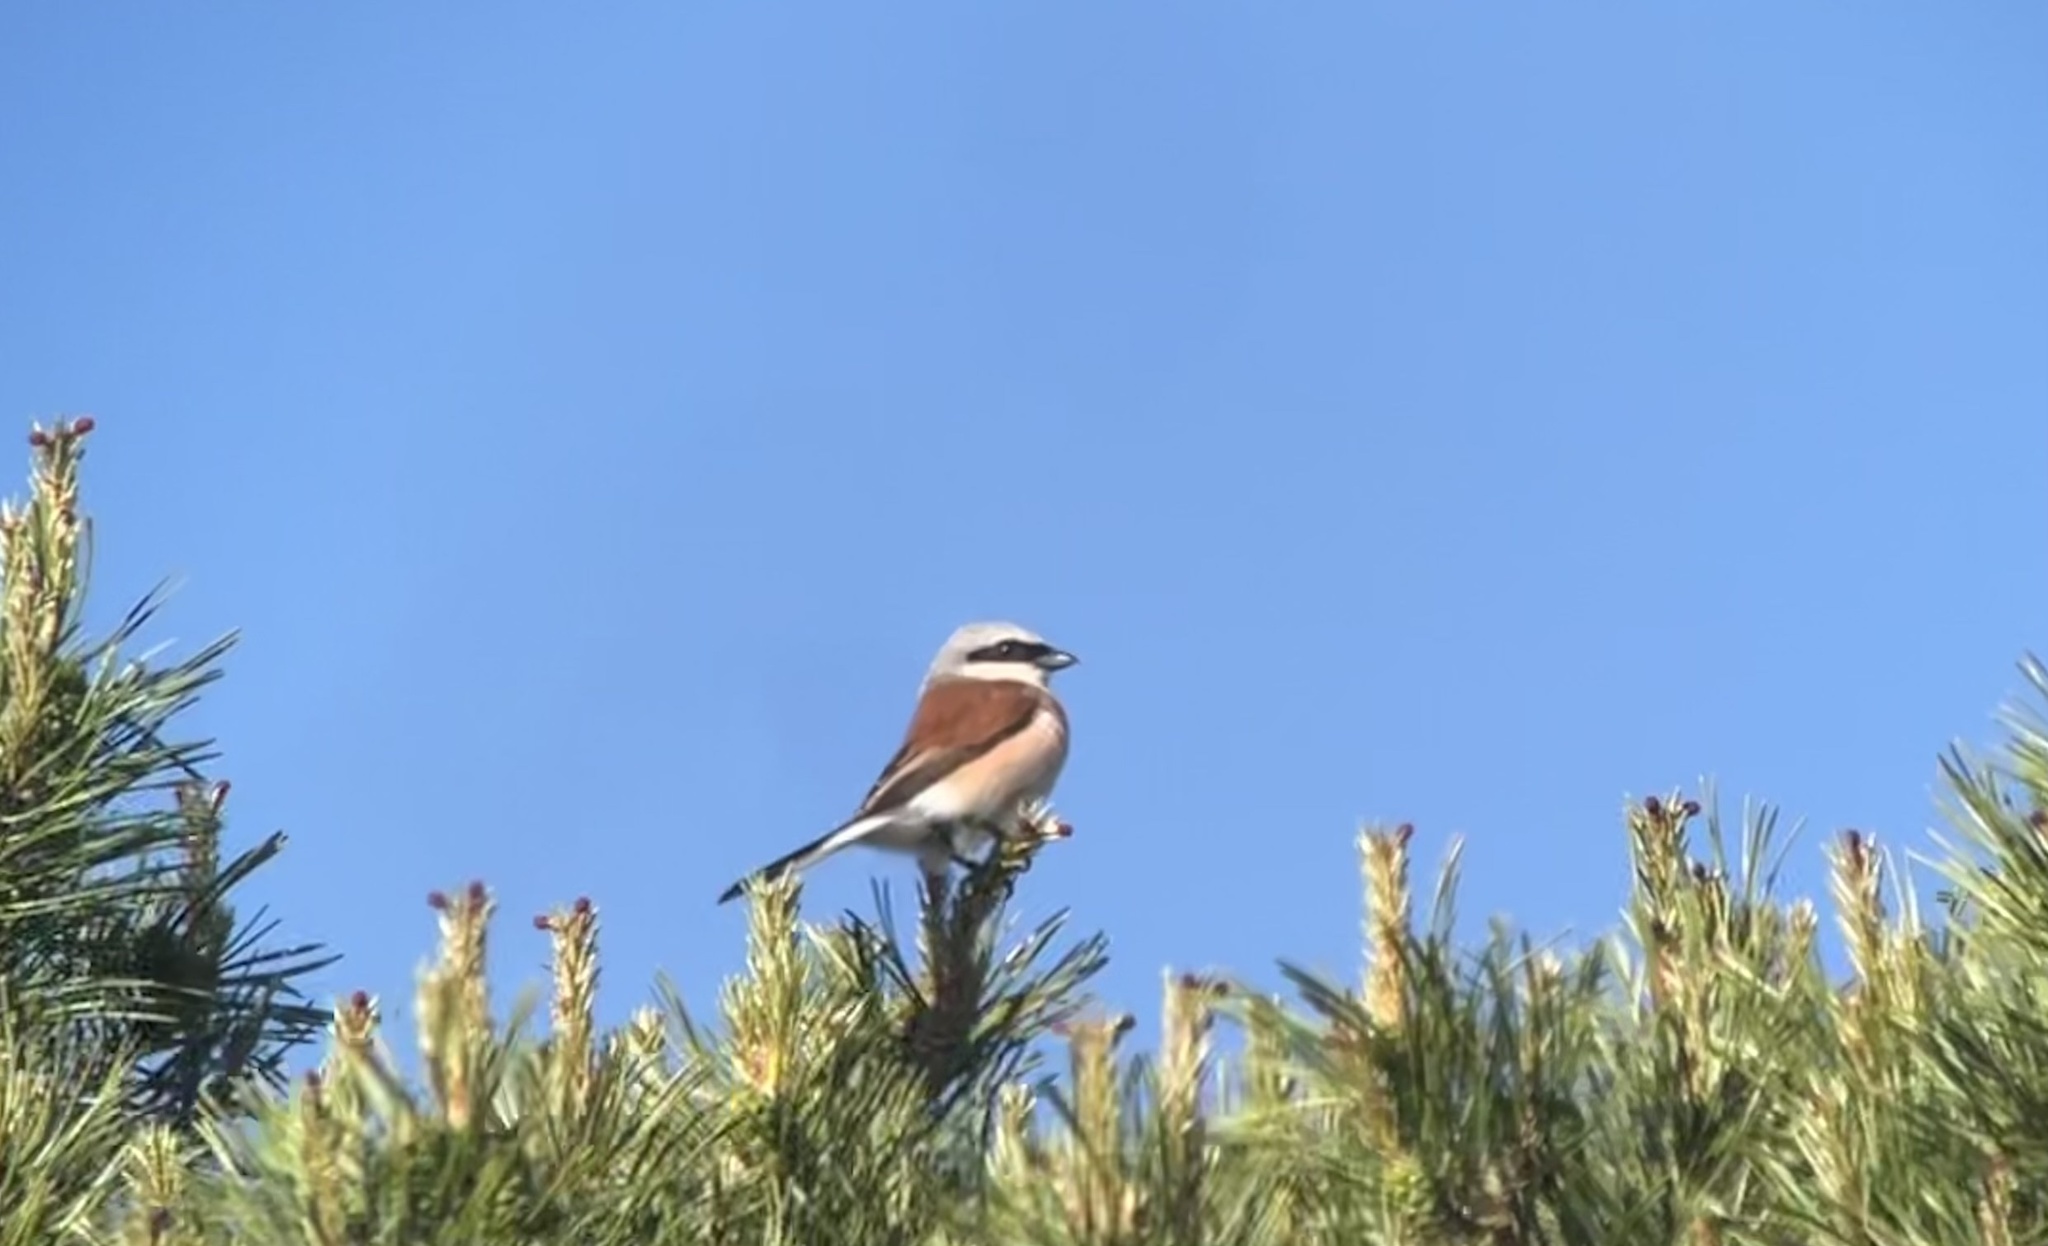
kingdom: Animalia
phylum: Chordata
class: Aves
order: Passeriformes
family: Laniidae
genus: Lanius
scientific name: Lanius collurio
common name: Red-backed shrike
